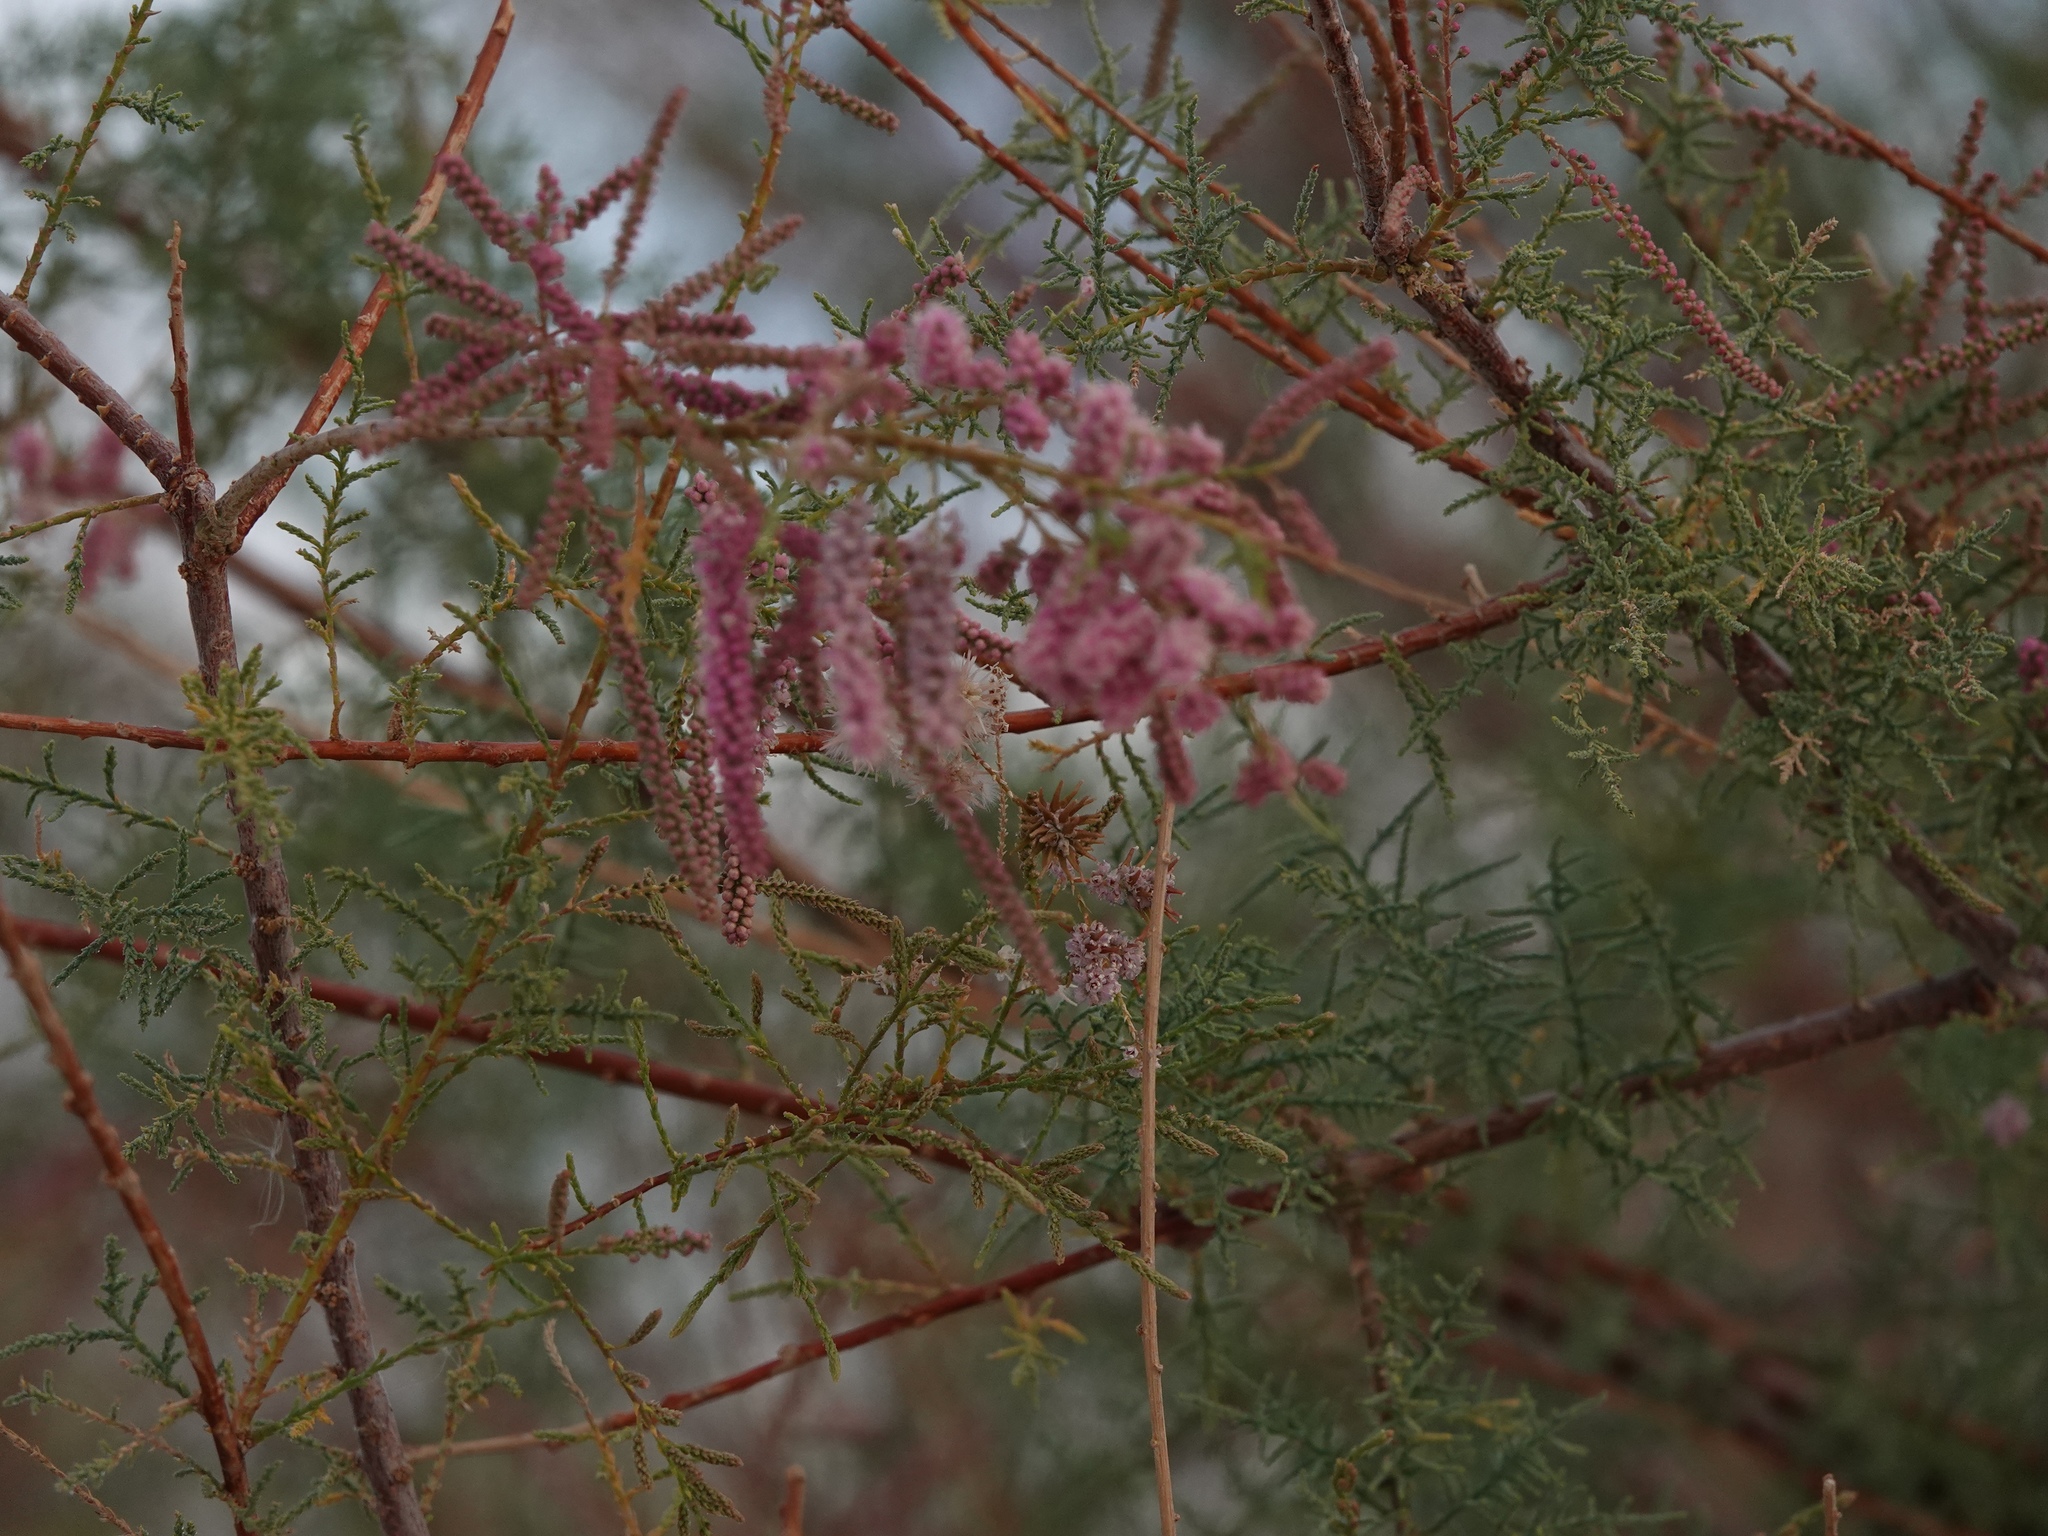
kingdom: Plantae
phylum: Tracheophyta
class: Magnoliopsida
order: Caryophyllales
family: Tamaricaceae
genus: Tamarix
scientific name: Tamarix ramosissima
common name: Pink tamarisk
